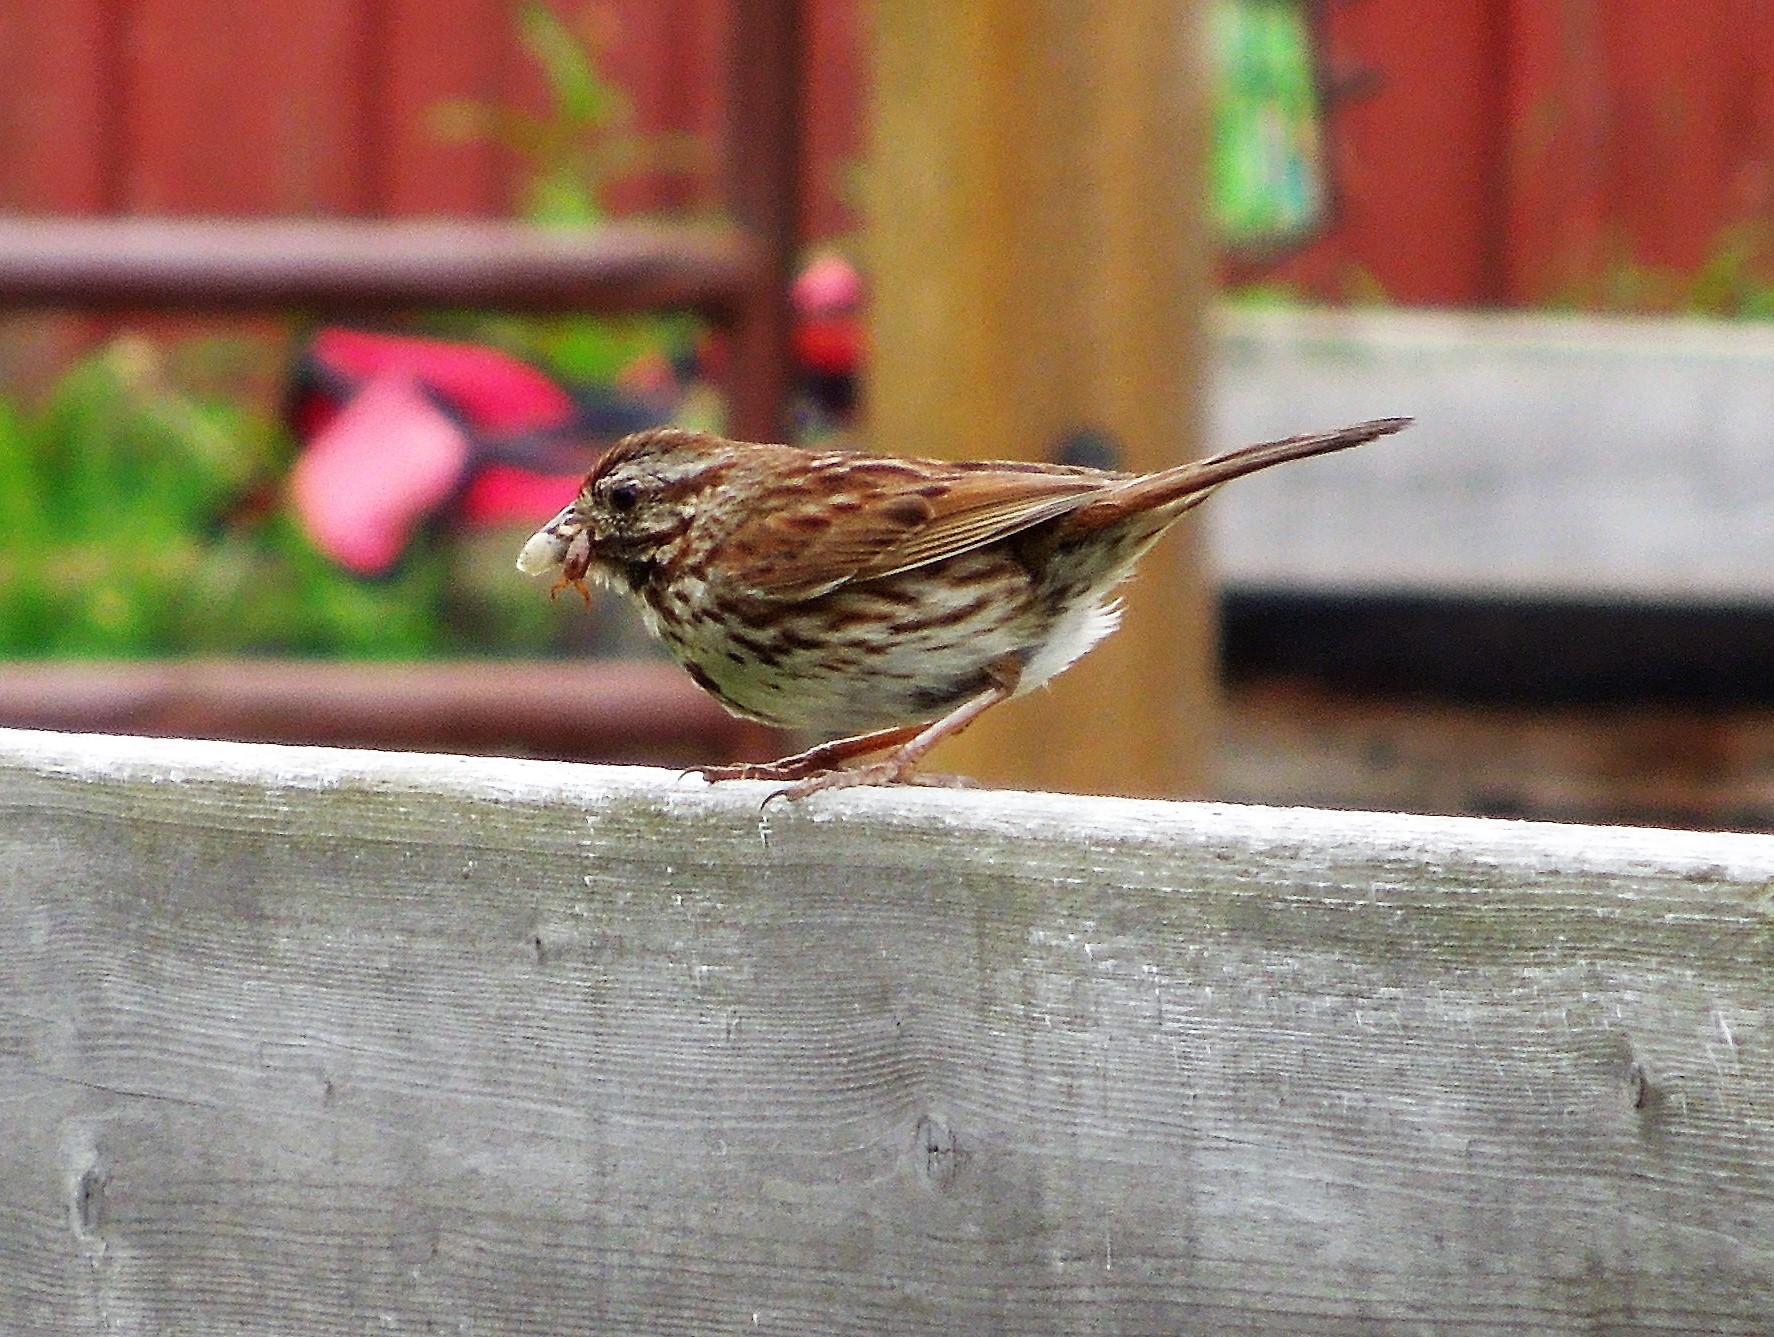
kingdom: Animalia
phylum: Chordata
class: Aves
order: Passeriformes
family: Passerellidae
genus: Melospiza
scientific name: Melospiza melodia
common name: Song sparrow
